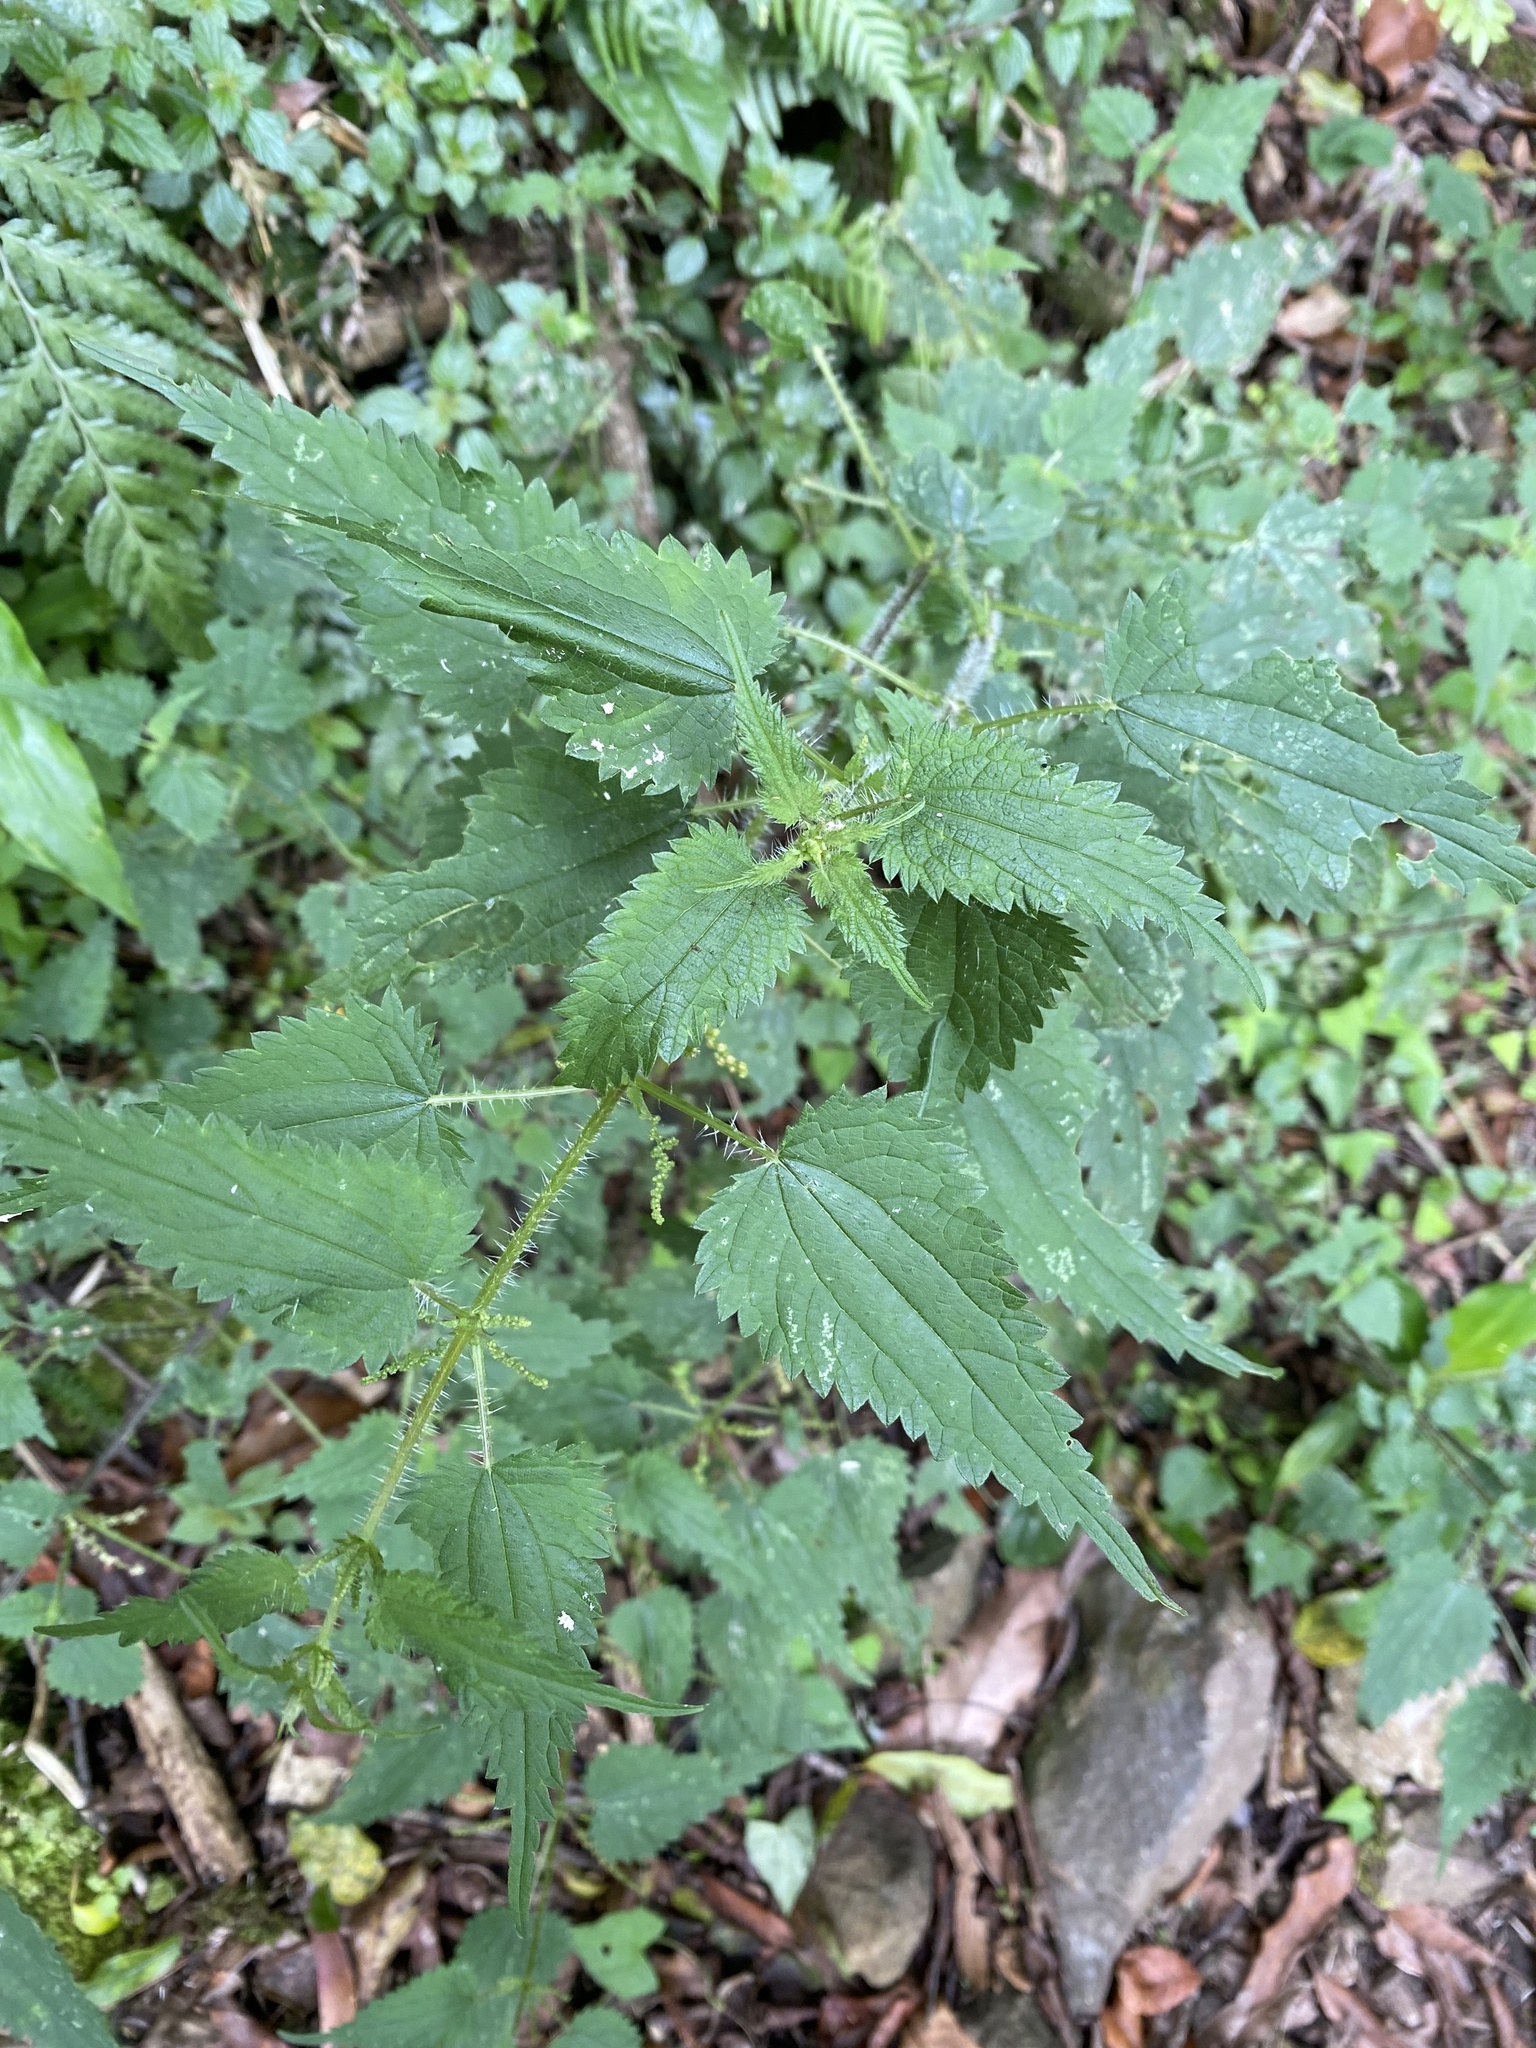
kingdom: Plantae
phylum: Tracheophyta
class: Magnoliopsida
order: Rosales
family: Urticaceae
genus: Urtica
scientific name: Urtica incisa
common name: Scrub nettle
